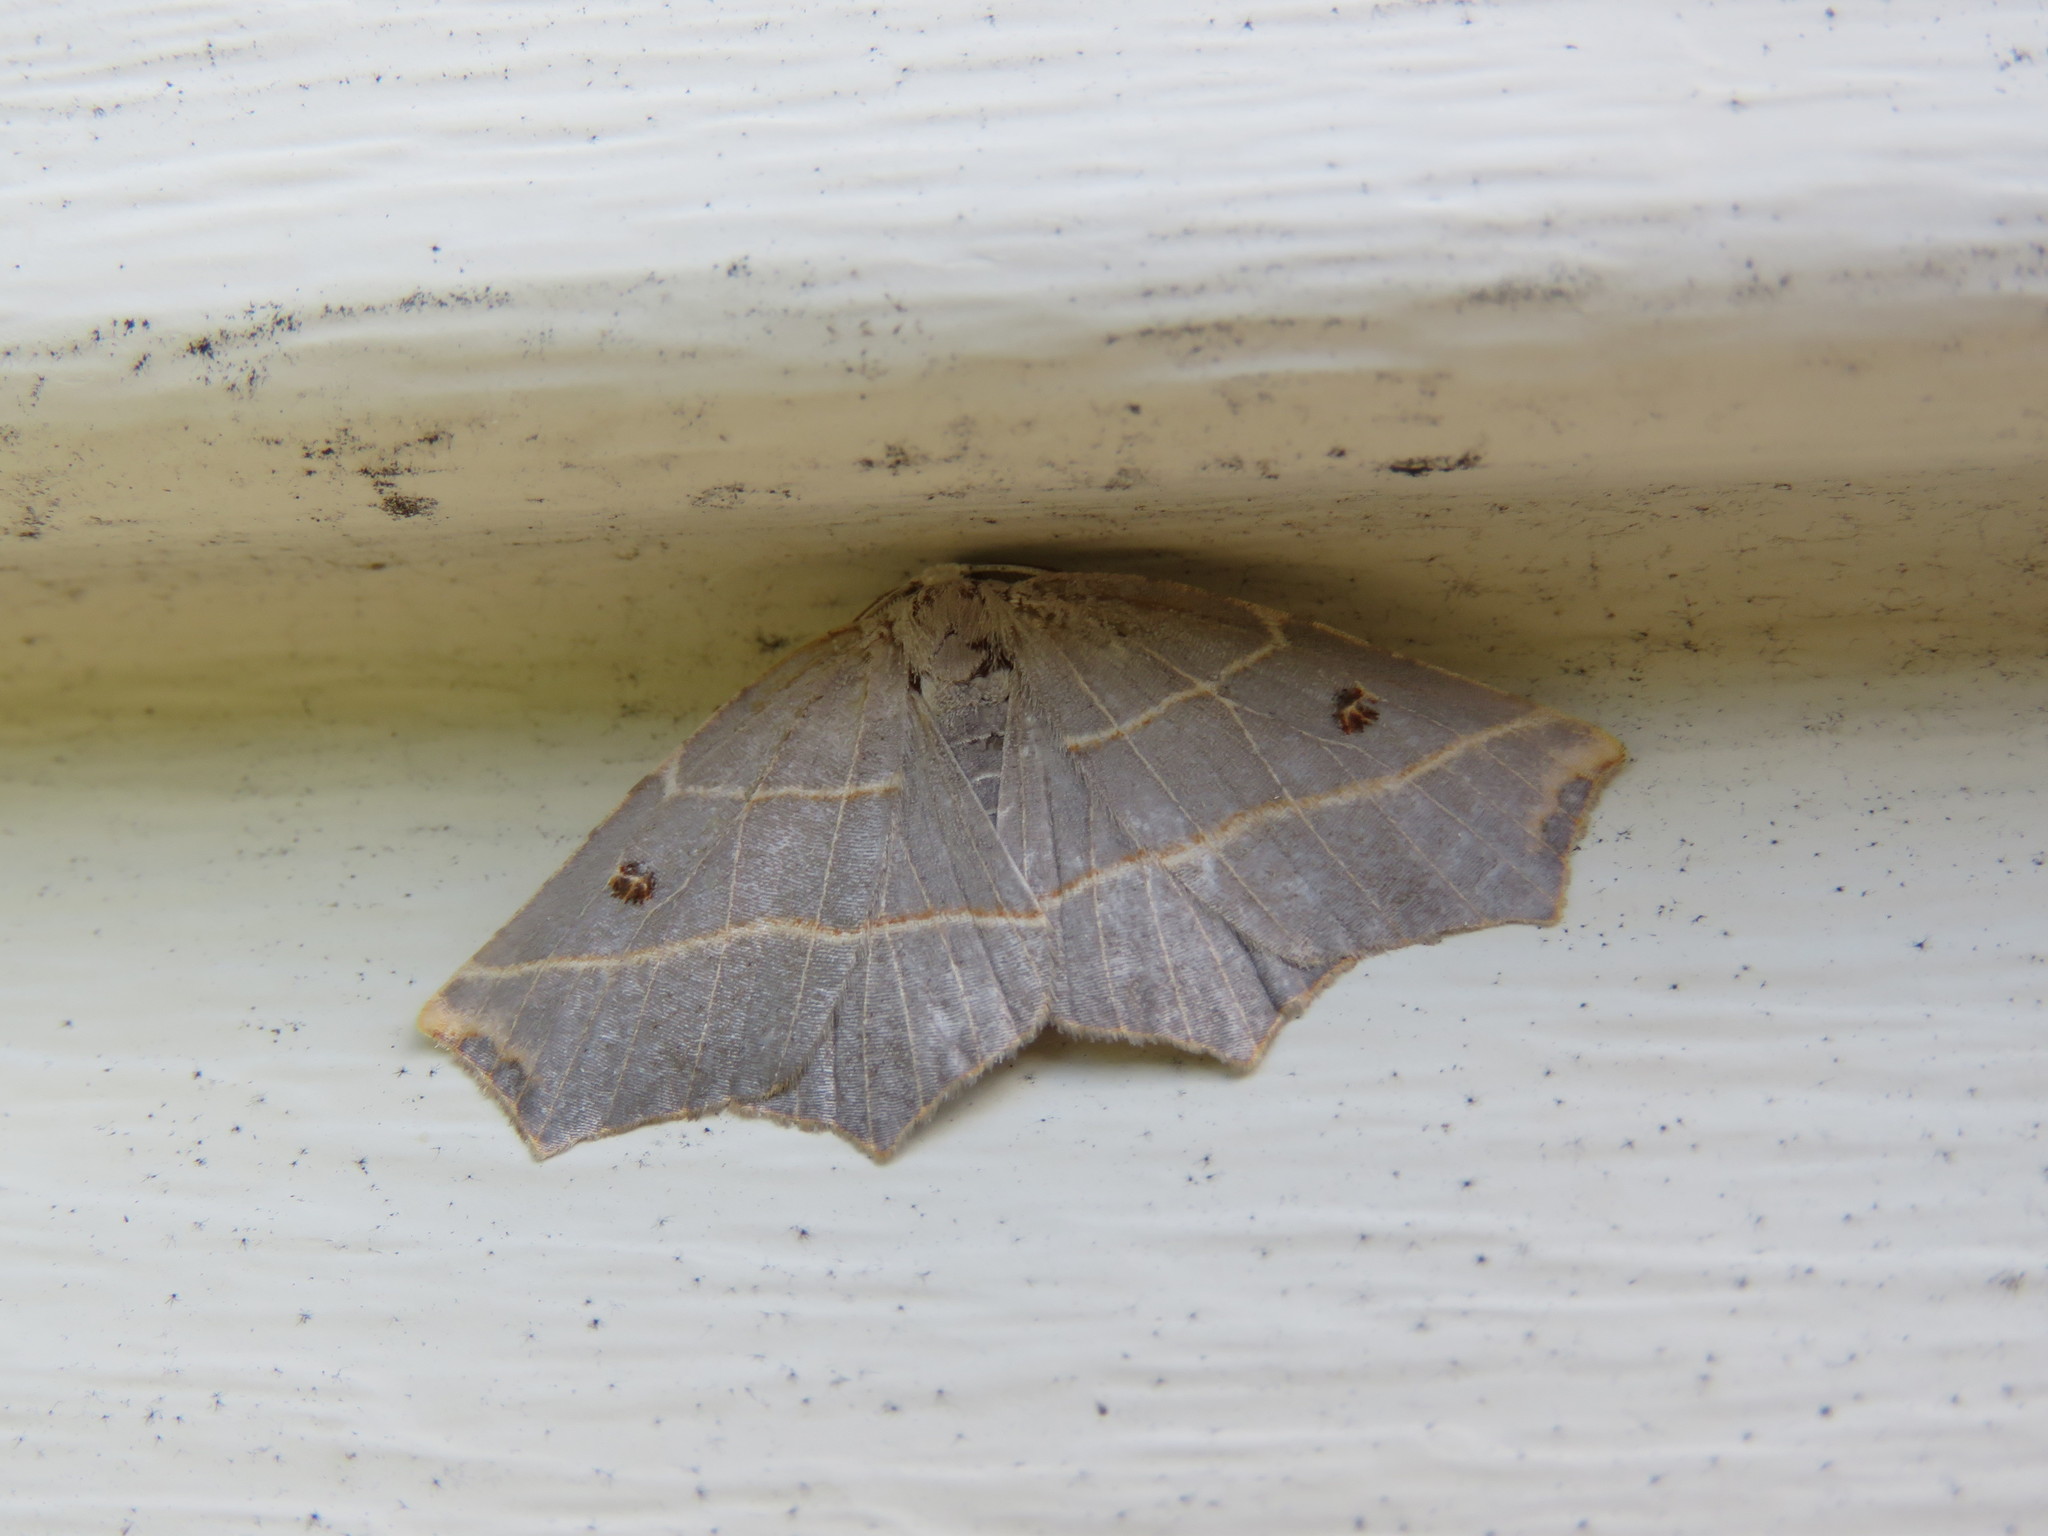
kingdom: Animalia
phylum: Arthropoda
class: Insecta
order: Lepidoptera
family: Geometridae
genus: Metanema
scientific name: Metanema inatomaria
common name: Pale metanema
